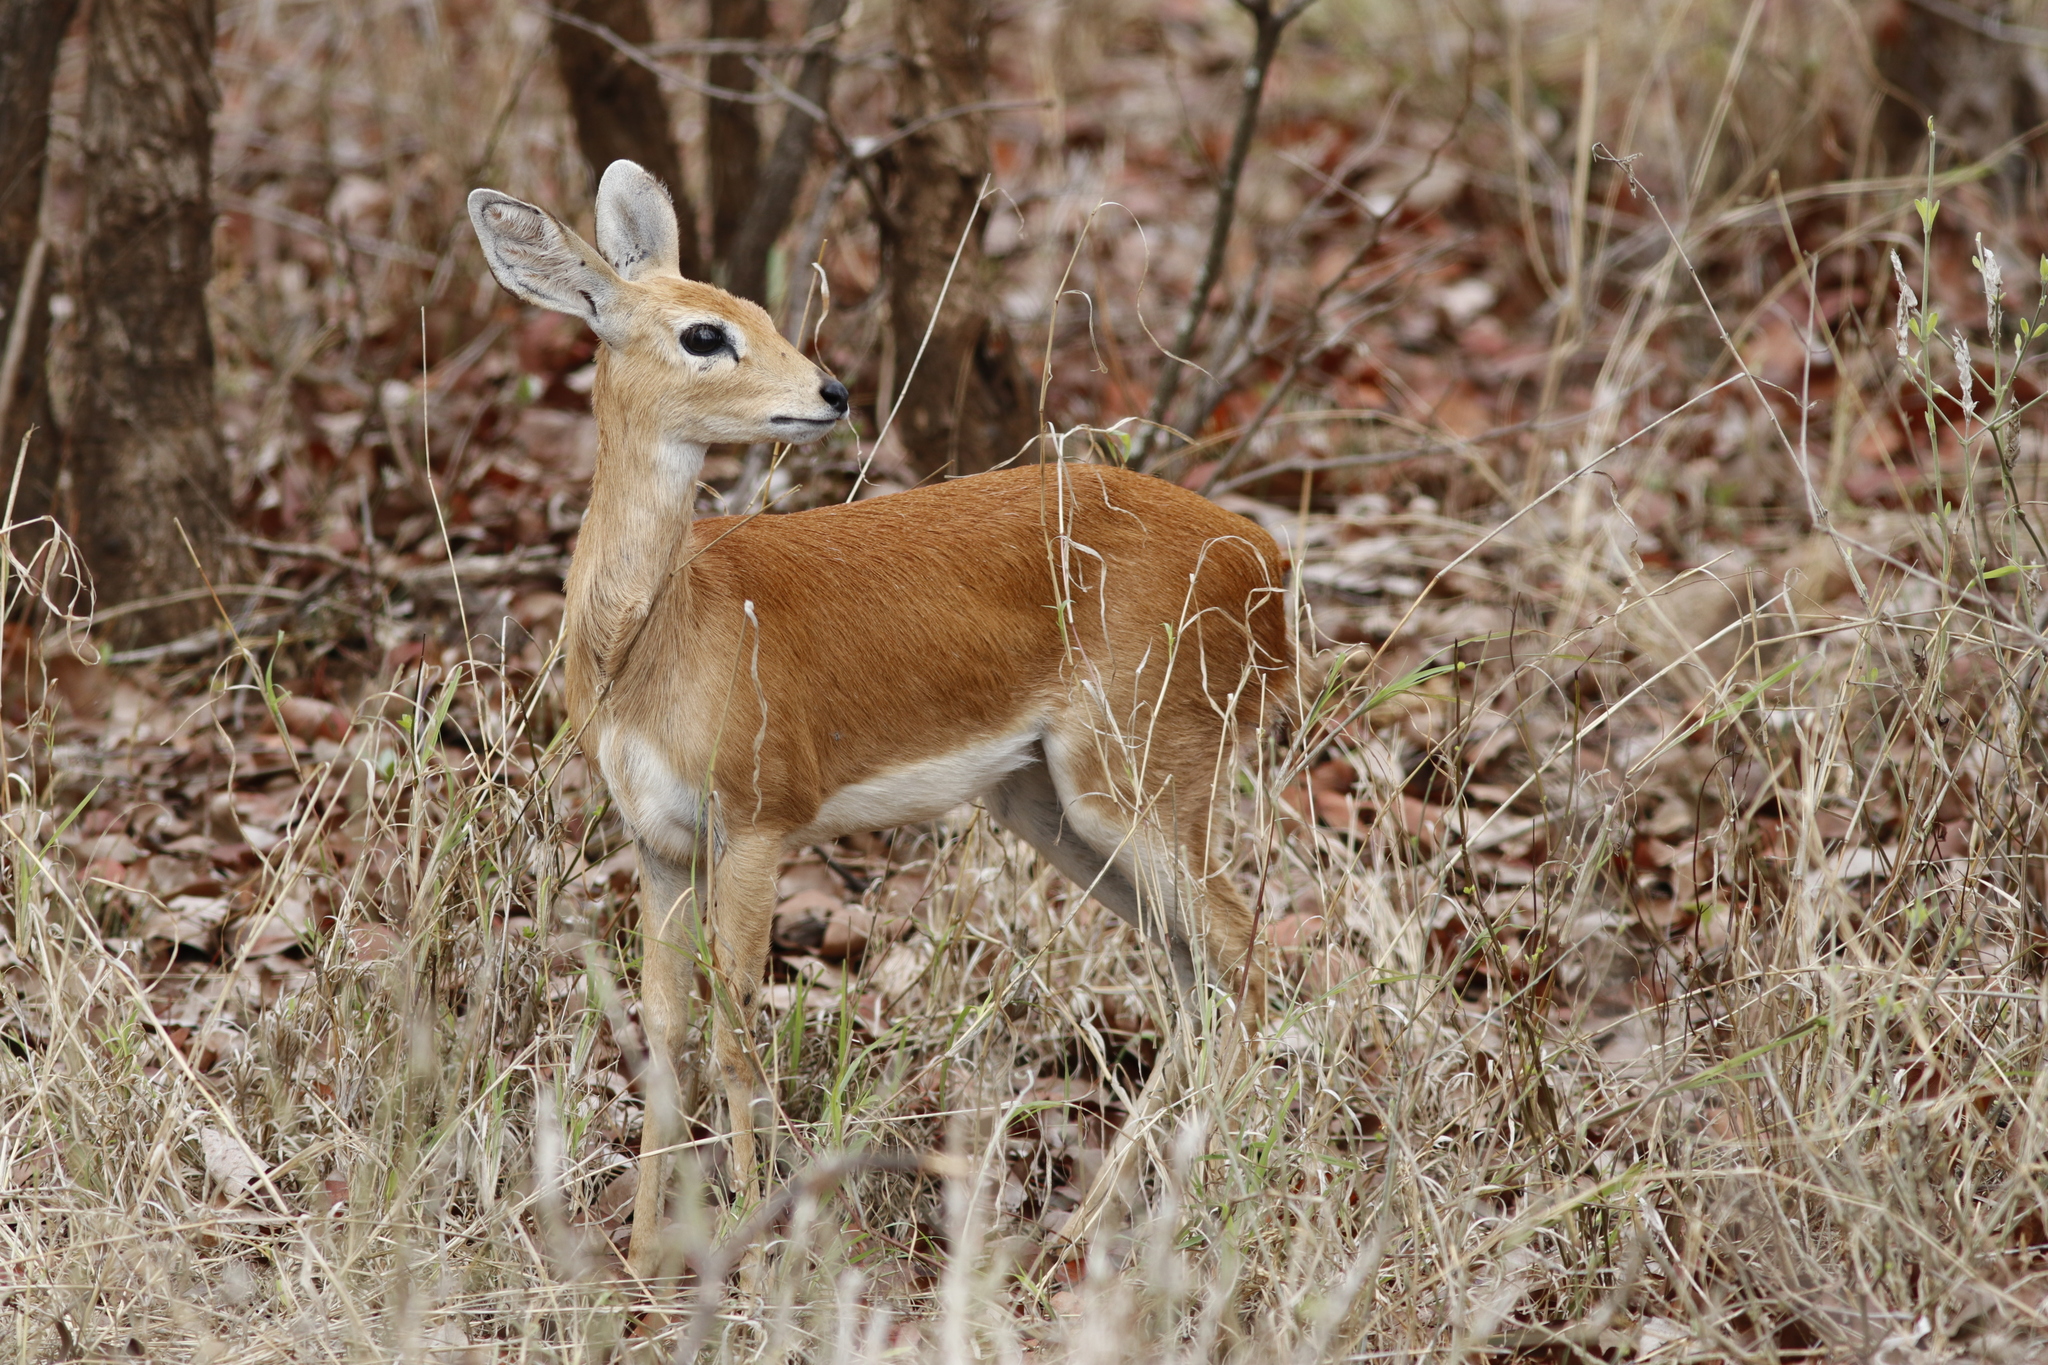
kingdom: Animalia
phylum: Chordata
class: Mammalia
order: Artiodactyla
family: Bovidae
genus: Raphicerus
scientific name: Raphicerus campestris
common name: Steenbok
